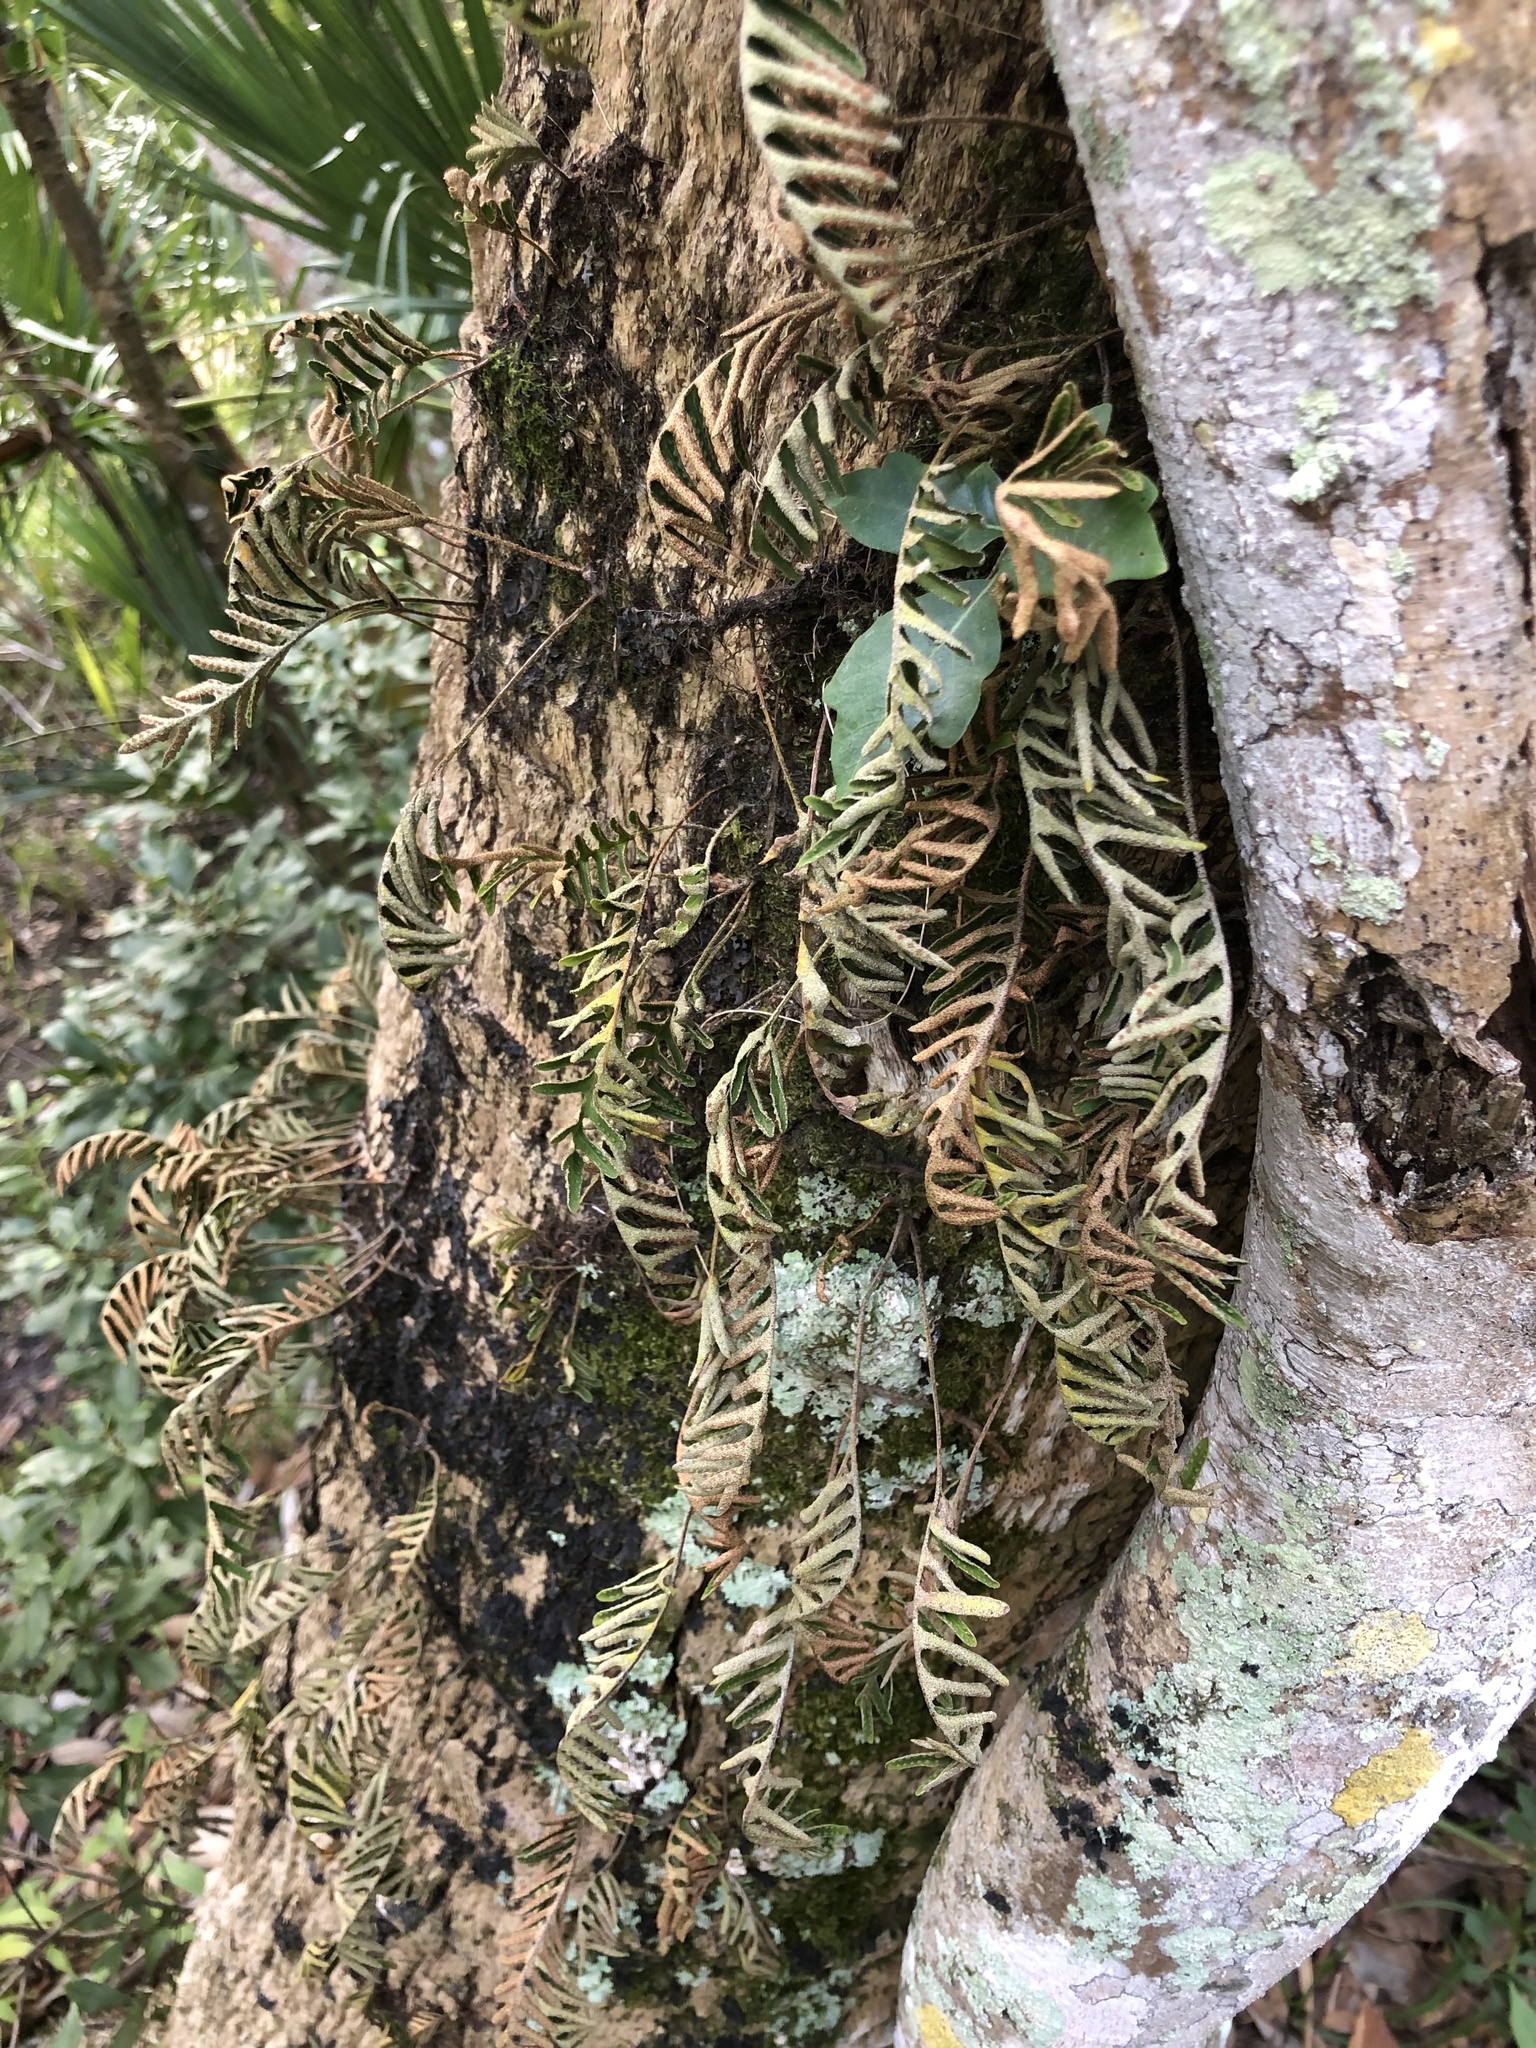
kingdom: Plantae
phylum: Tracheophyta
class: Polypodiopsida
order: Polypodiales
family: Polypodiaceae
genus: Pleopeltis
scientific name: Pleopeltis michauxiana
